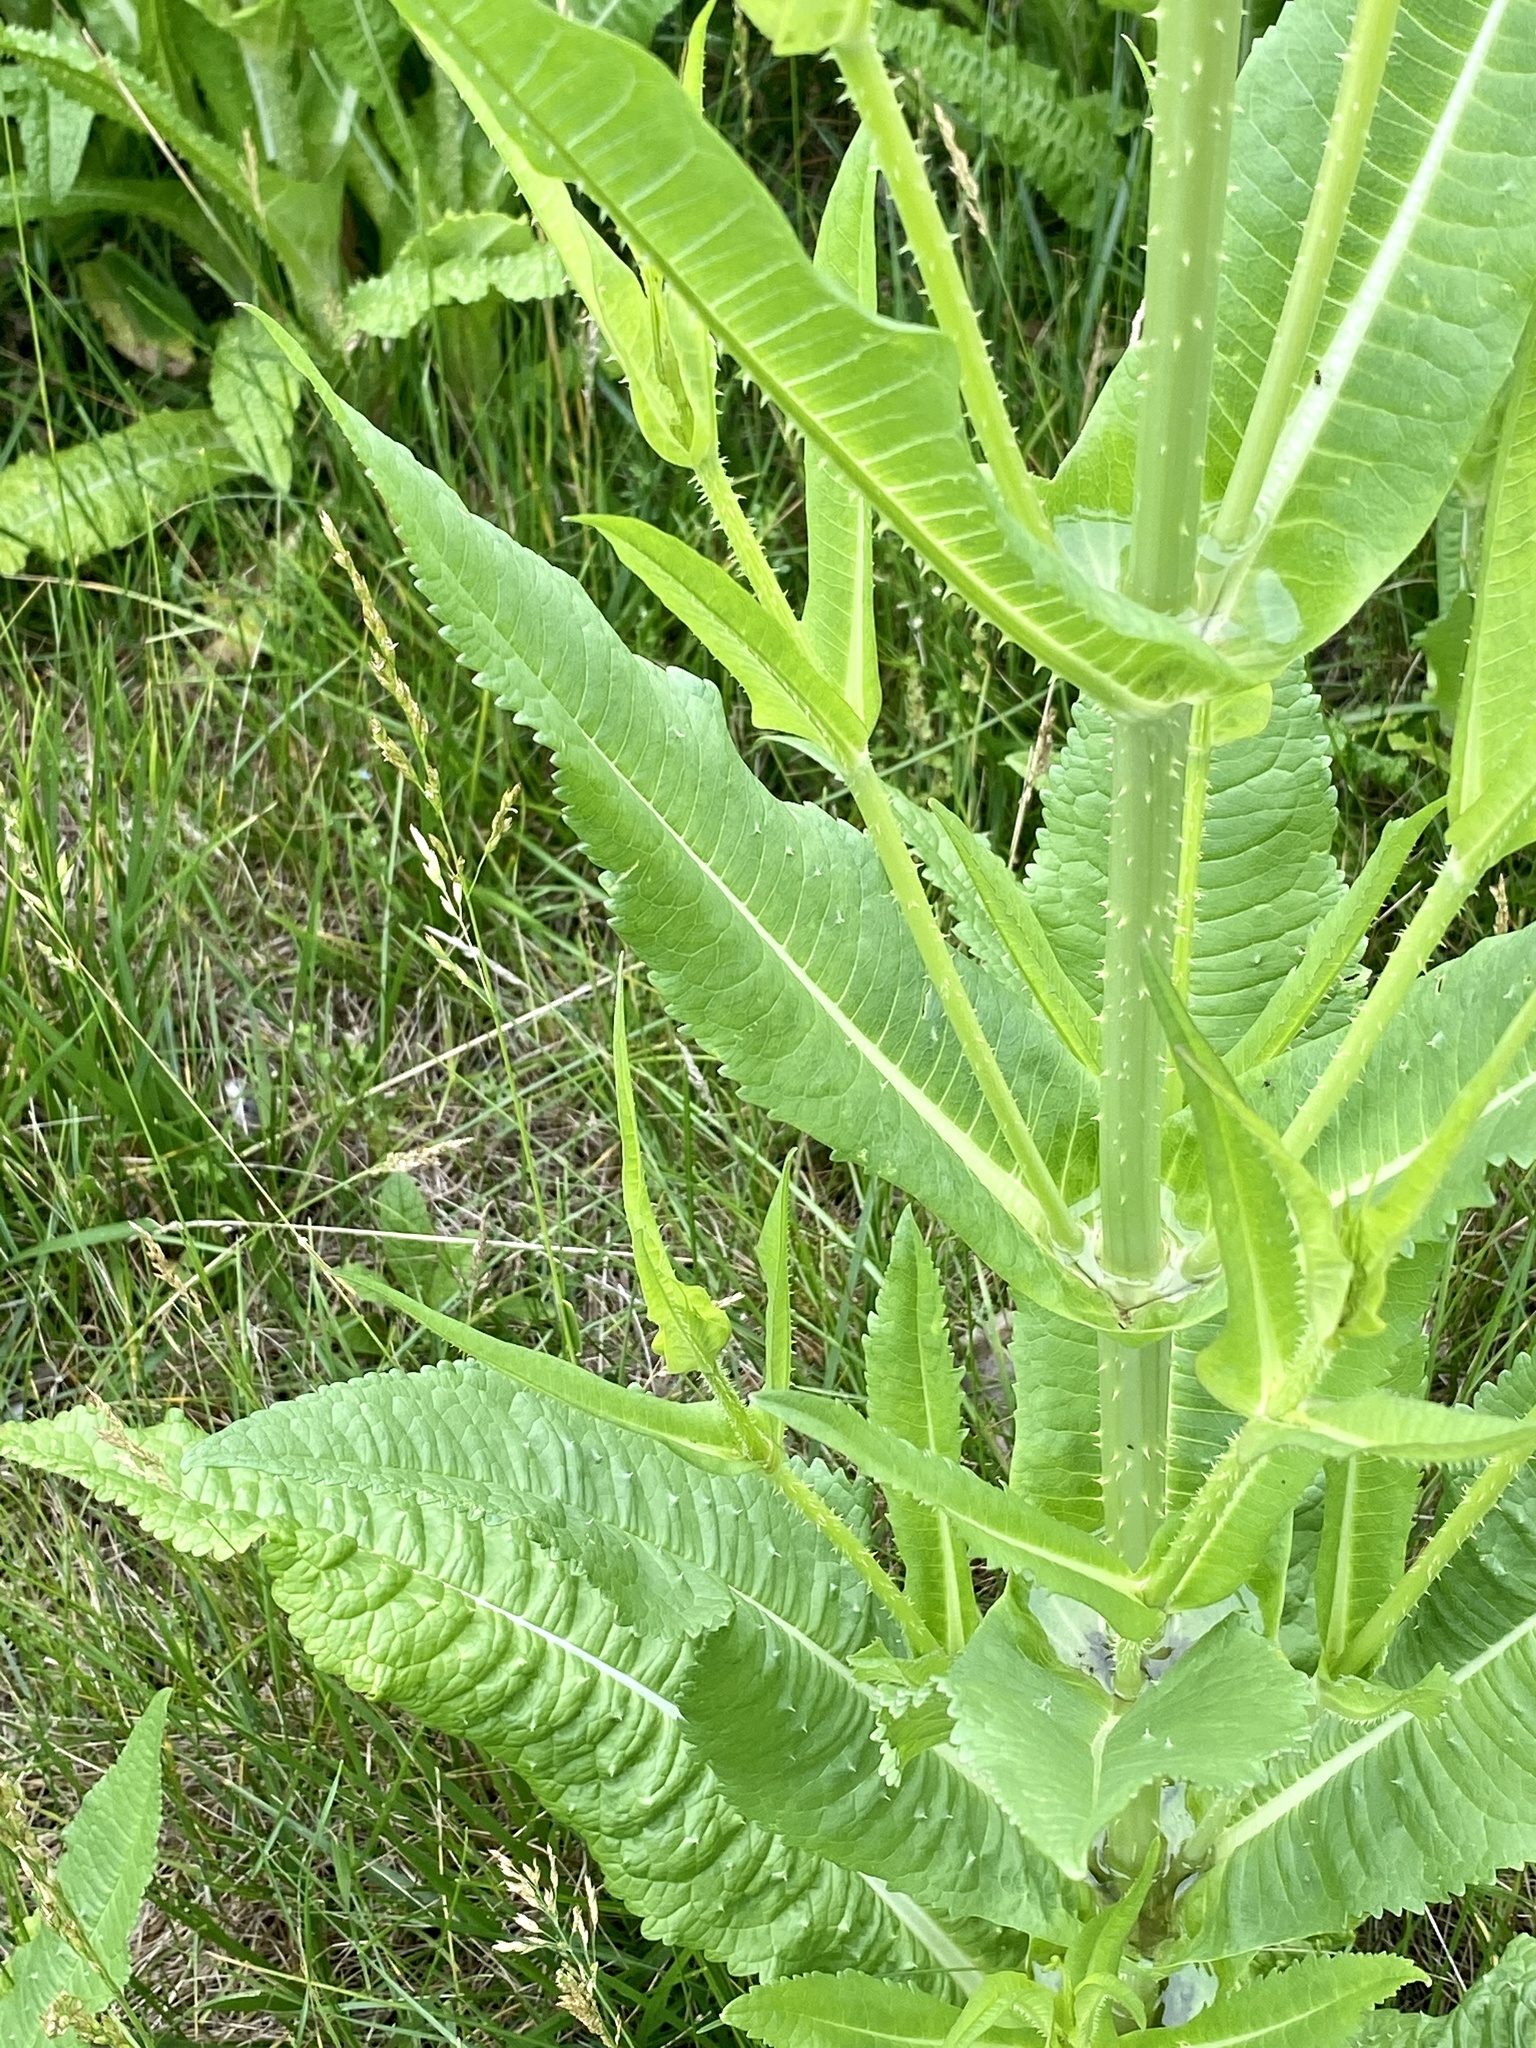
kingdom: Plantae
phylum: Tracheophyta
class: Magnoliopsida
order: Dipsacales
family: Caprifoliaceae
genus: Dipsacus
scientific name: Dipsacus fullonum
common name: Teasel
